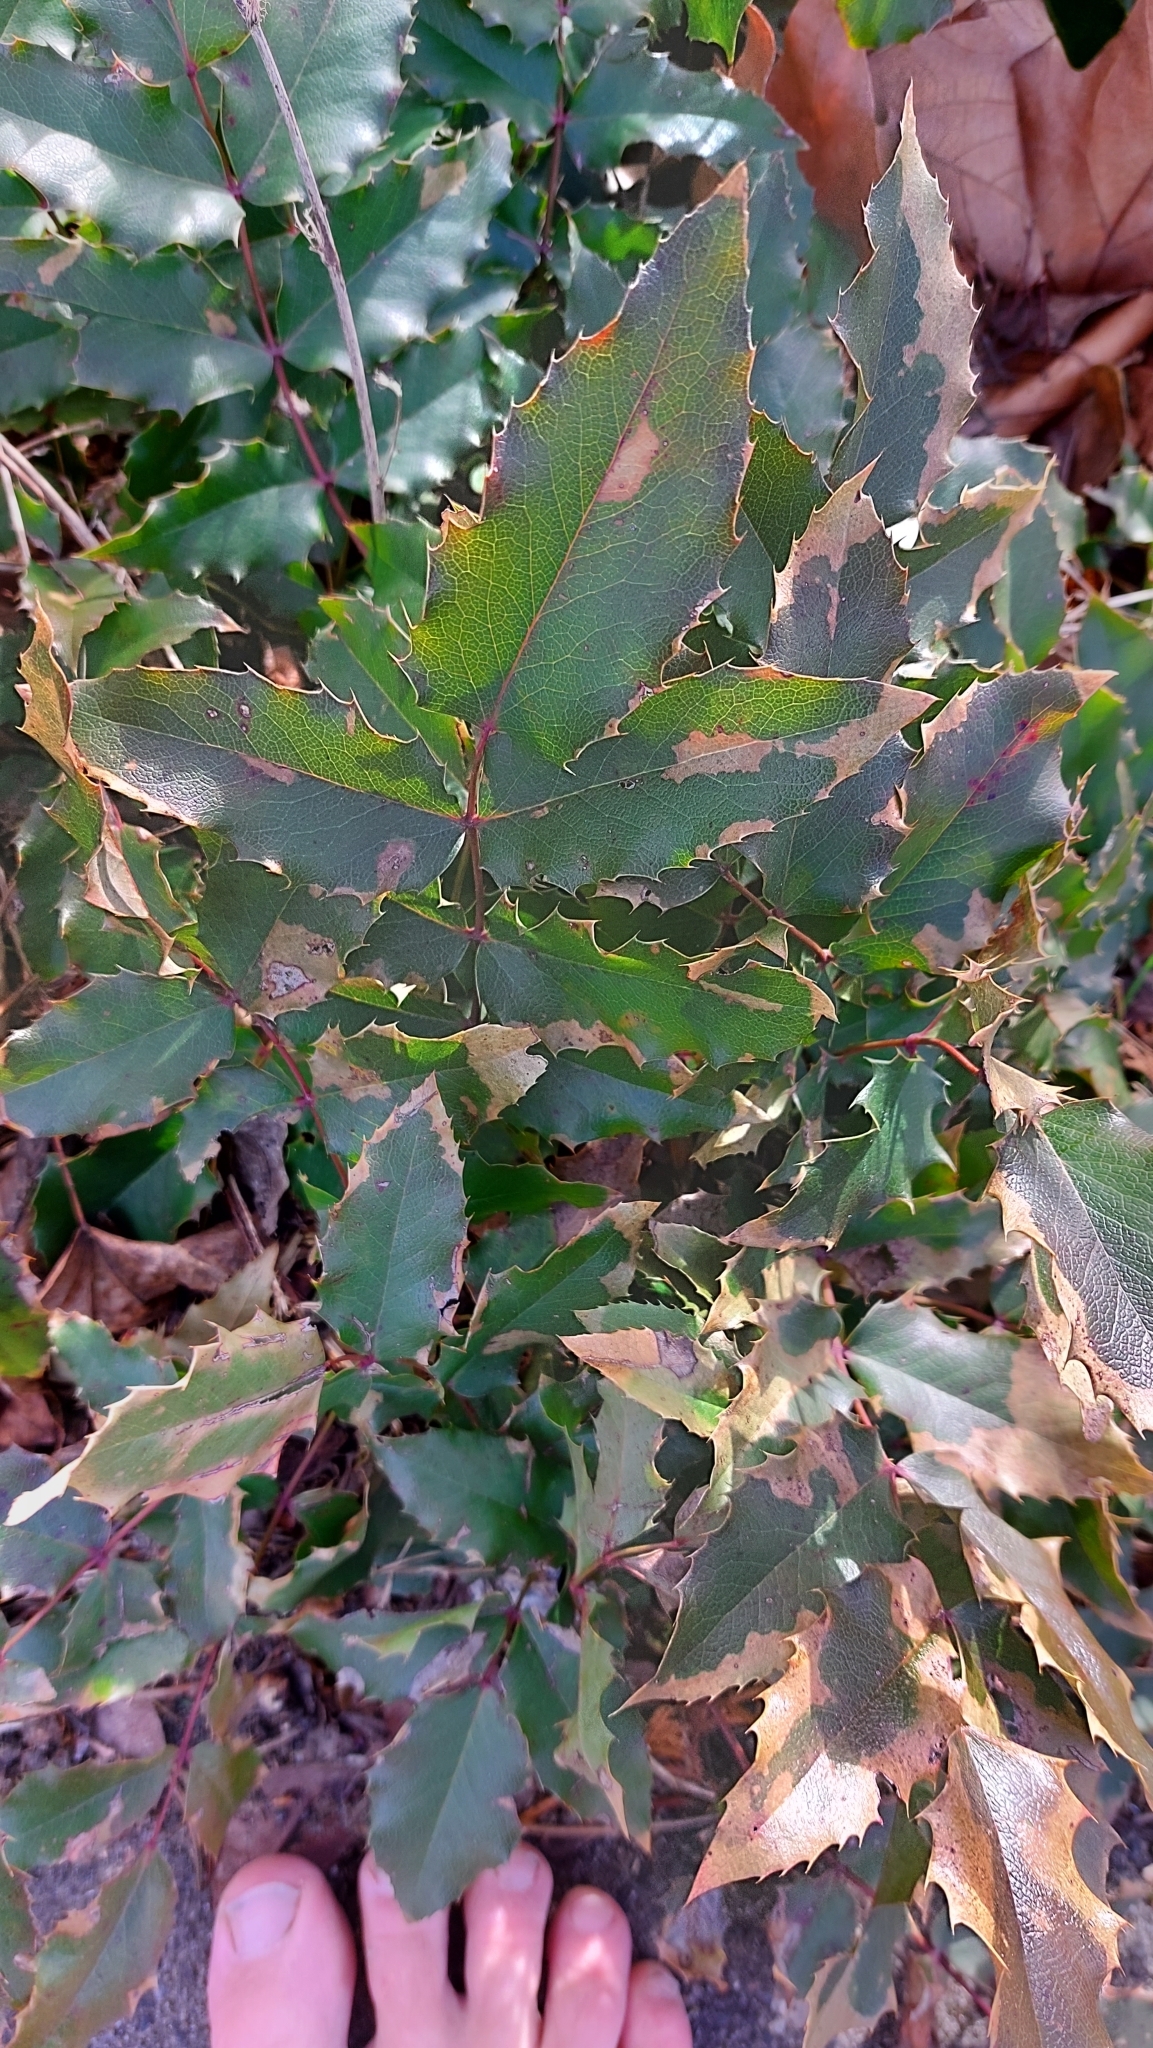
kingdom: Plantae
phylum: Tracheophyta
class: Magnoliopsida
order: Ranunculales
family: Berberidaceae
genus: Mahonia
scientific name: Mahonia aquifolium
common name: Oregon-grape
